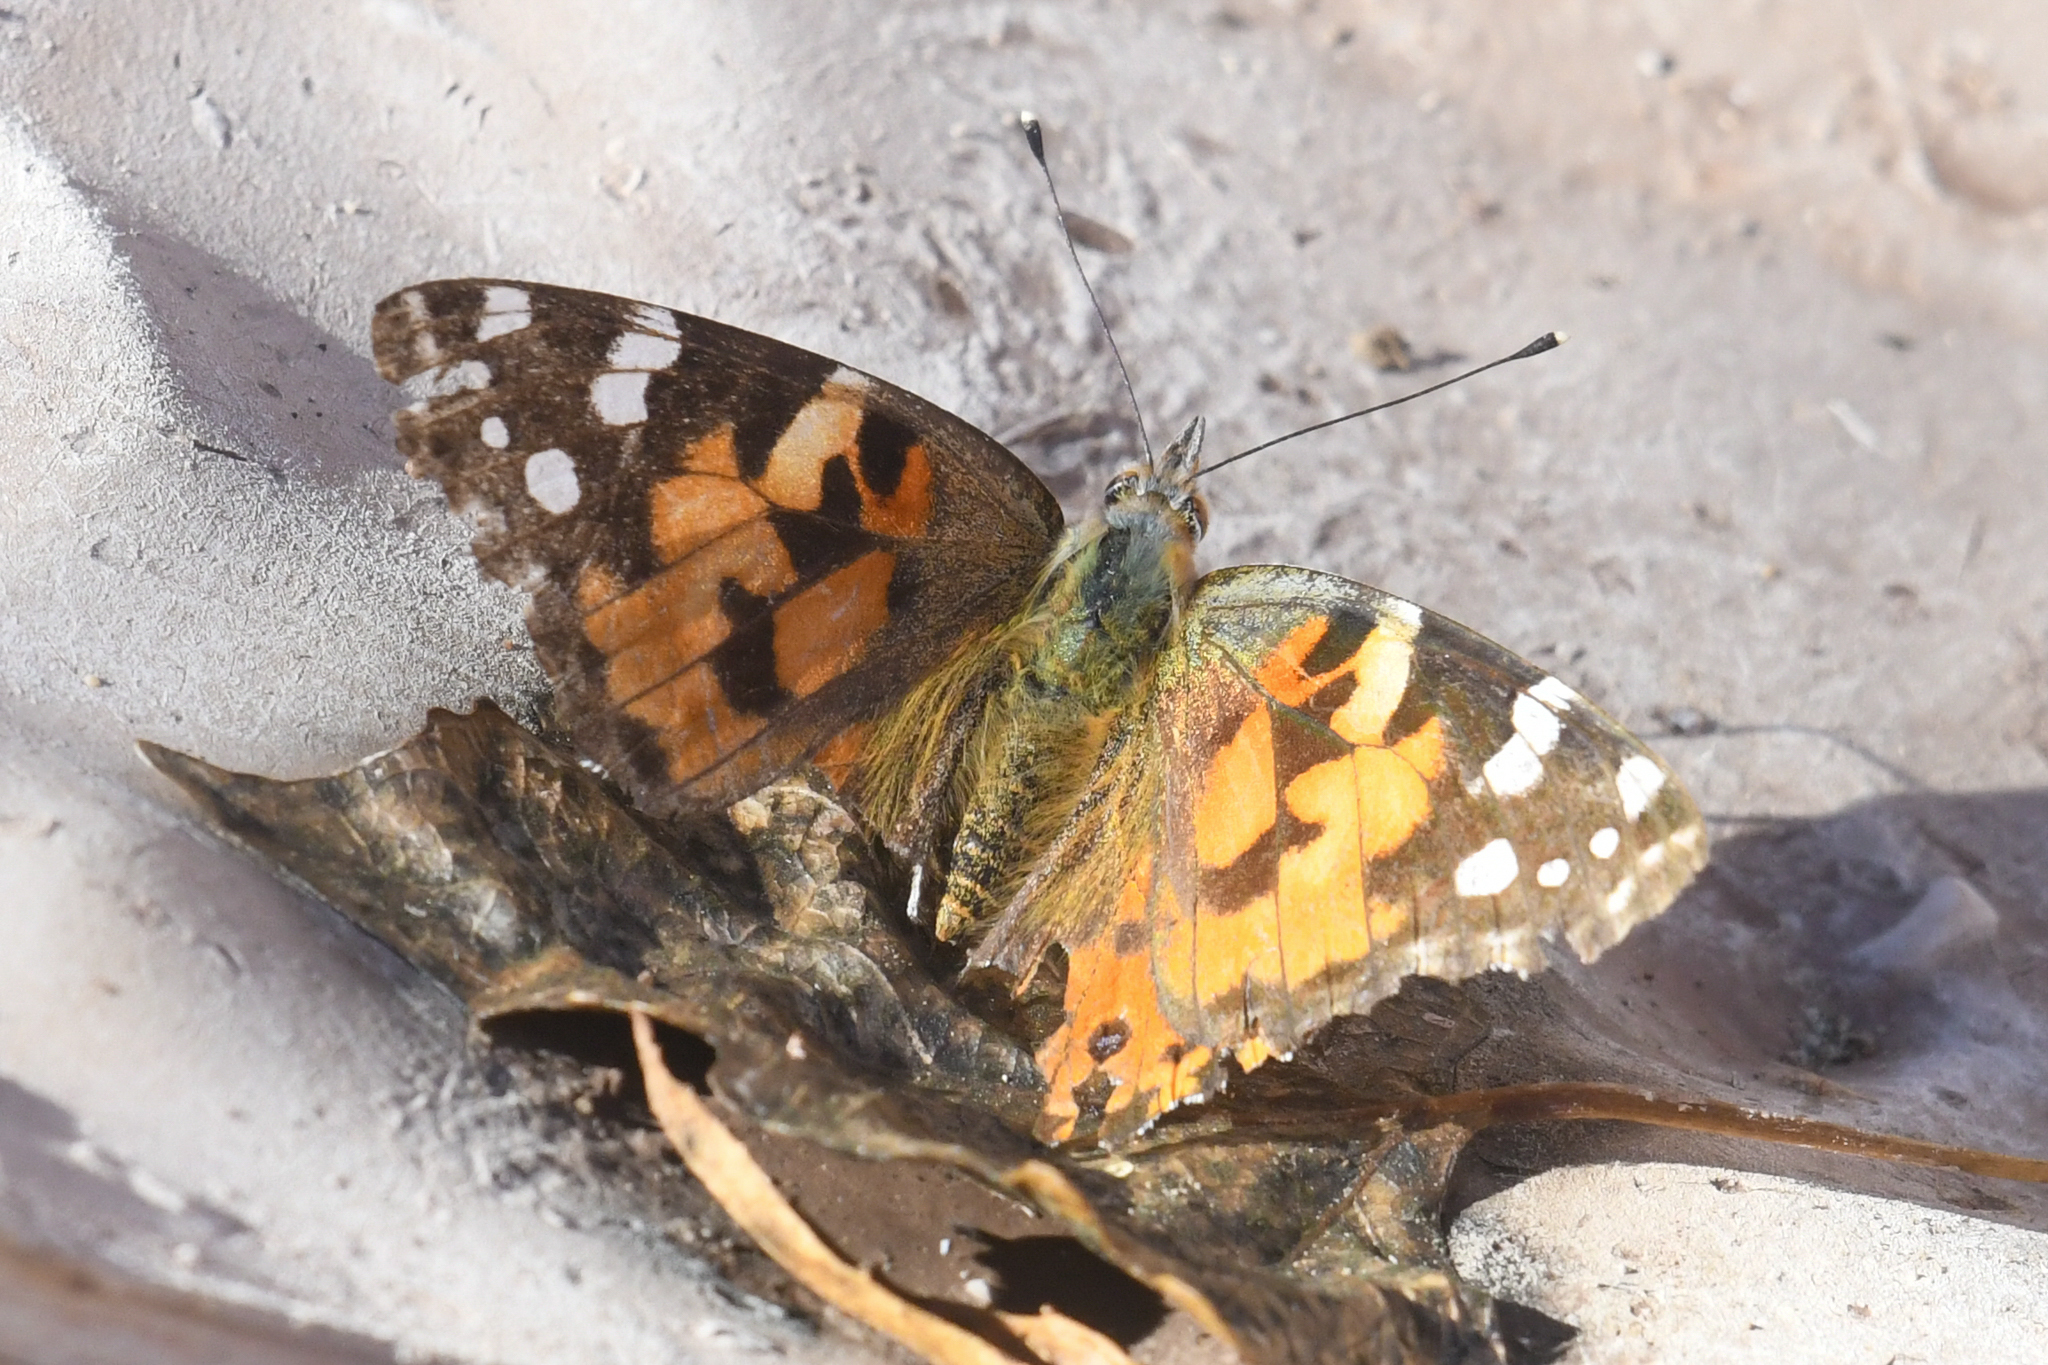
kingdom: Animalia
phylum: Arthropoda
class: Insecta
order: Lepidoptera
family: Nymphalidae
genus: Vanessa
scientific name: Vanessa cardui
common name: Painted lady
